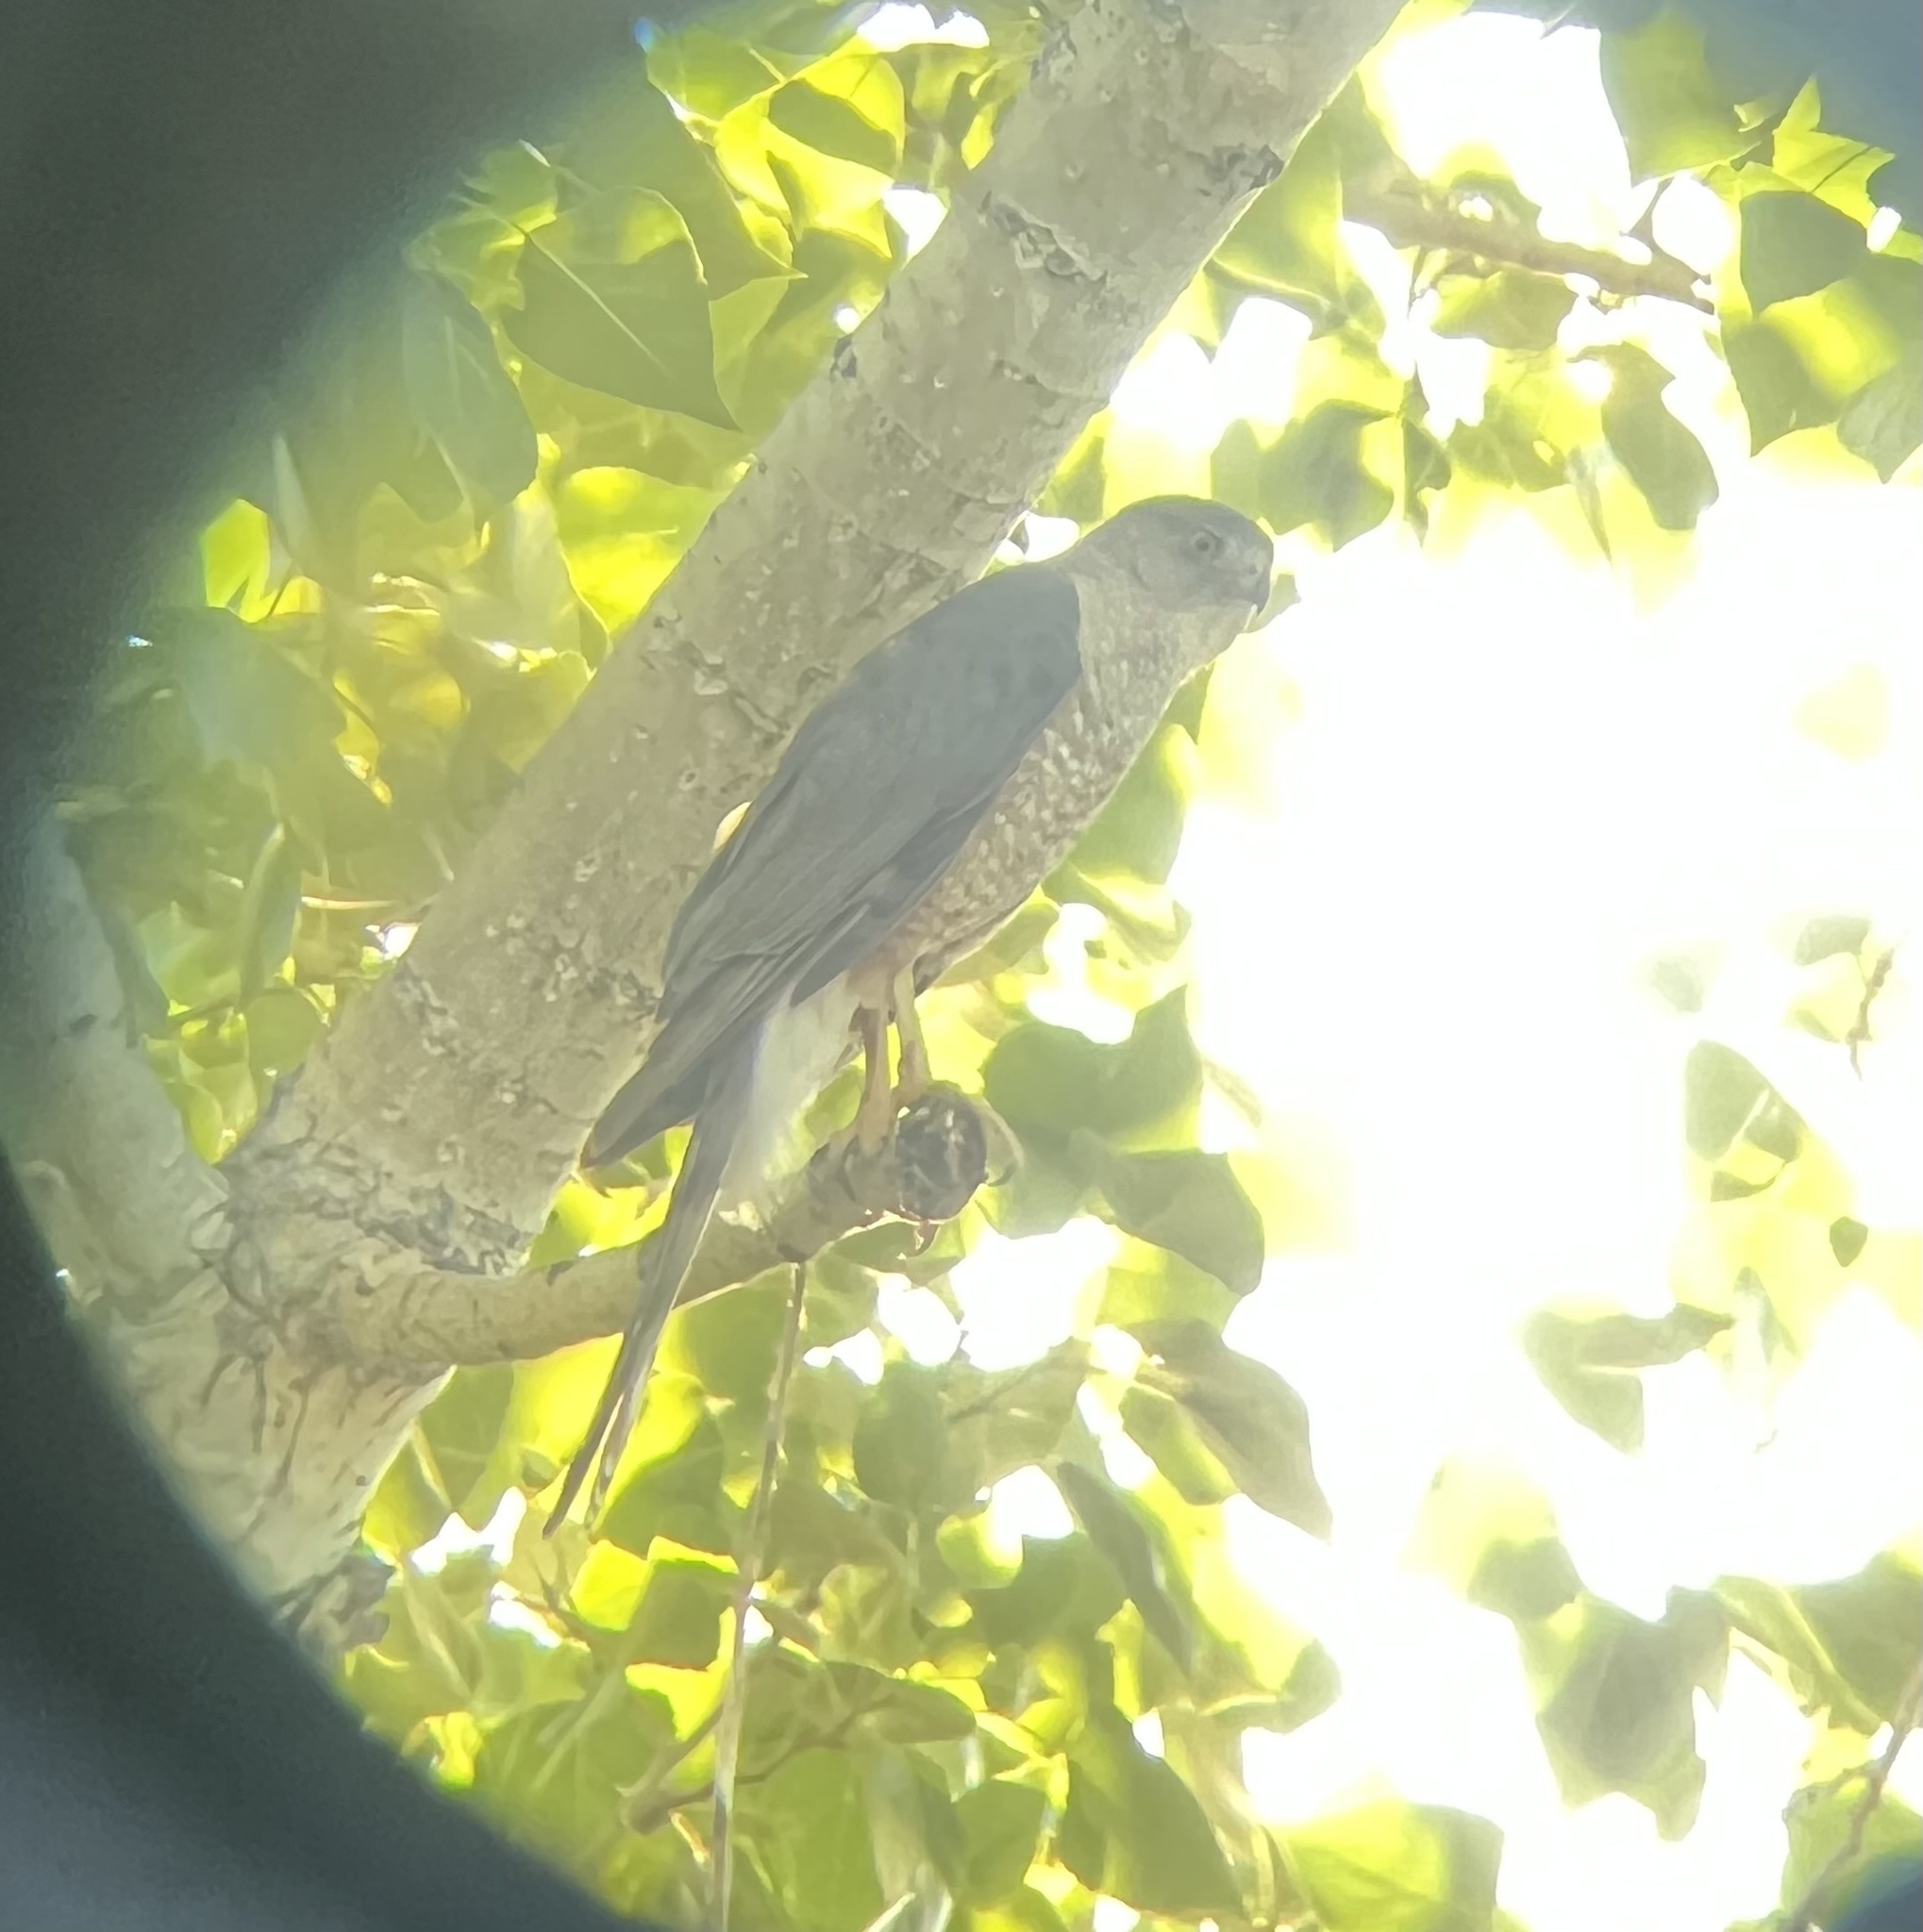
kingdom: Animalia
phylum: Chordata
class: Aves
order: Accipitriformes
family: Accipitridae
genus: Accipiter
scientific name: Accipiter cooperii
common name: Cooper's hawk
